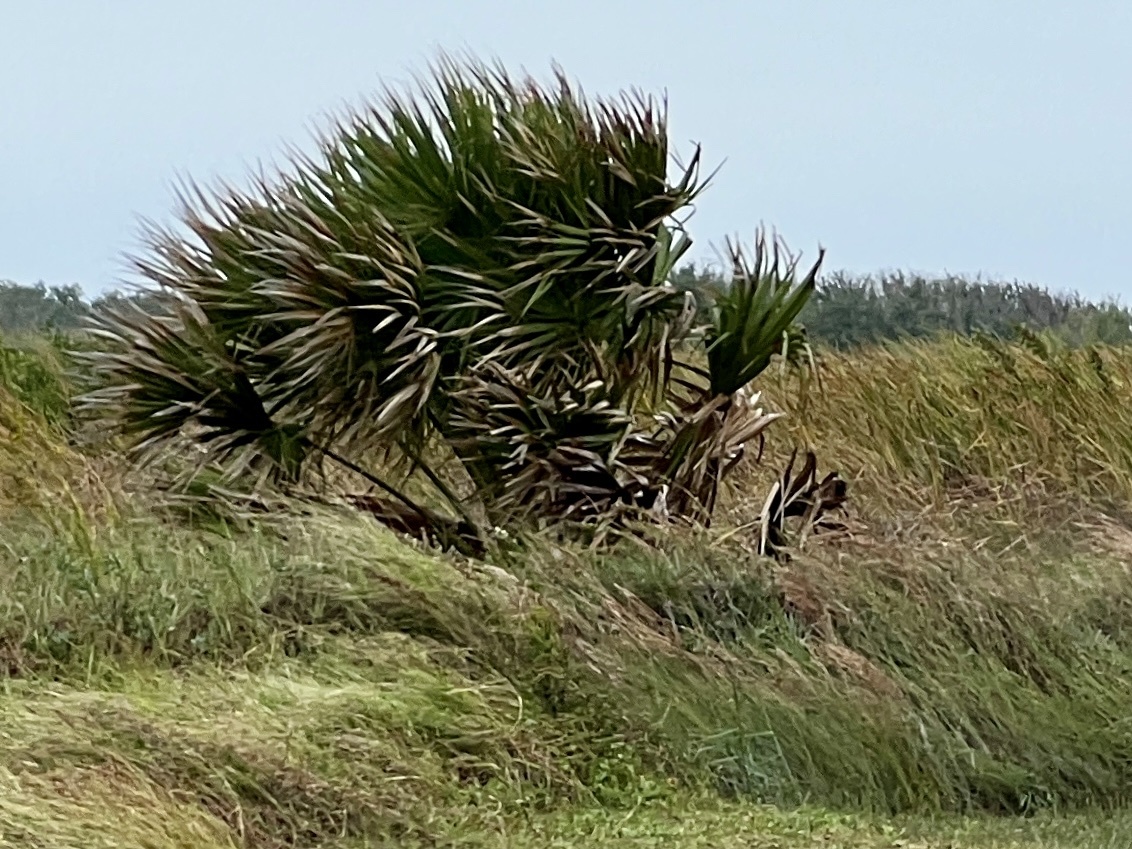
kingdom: Plantae
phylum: Tracheophyta
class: Liliopsida
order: Arecales
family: Arecaceae
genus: Sabal
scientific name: Sabal mexicana
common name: Texas palmetto
